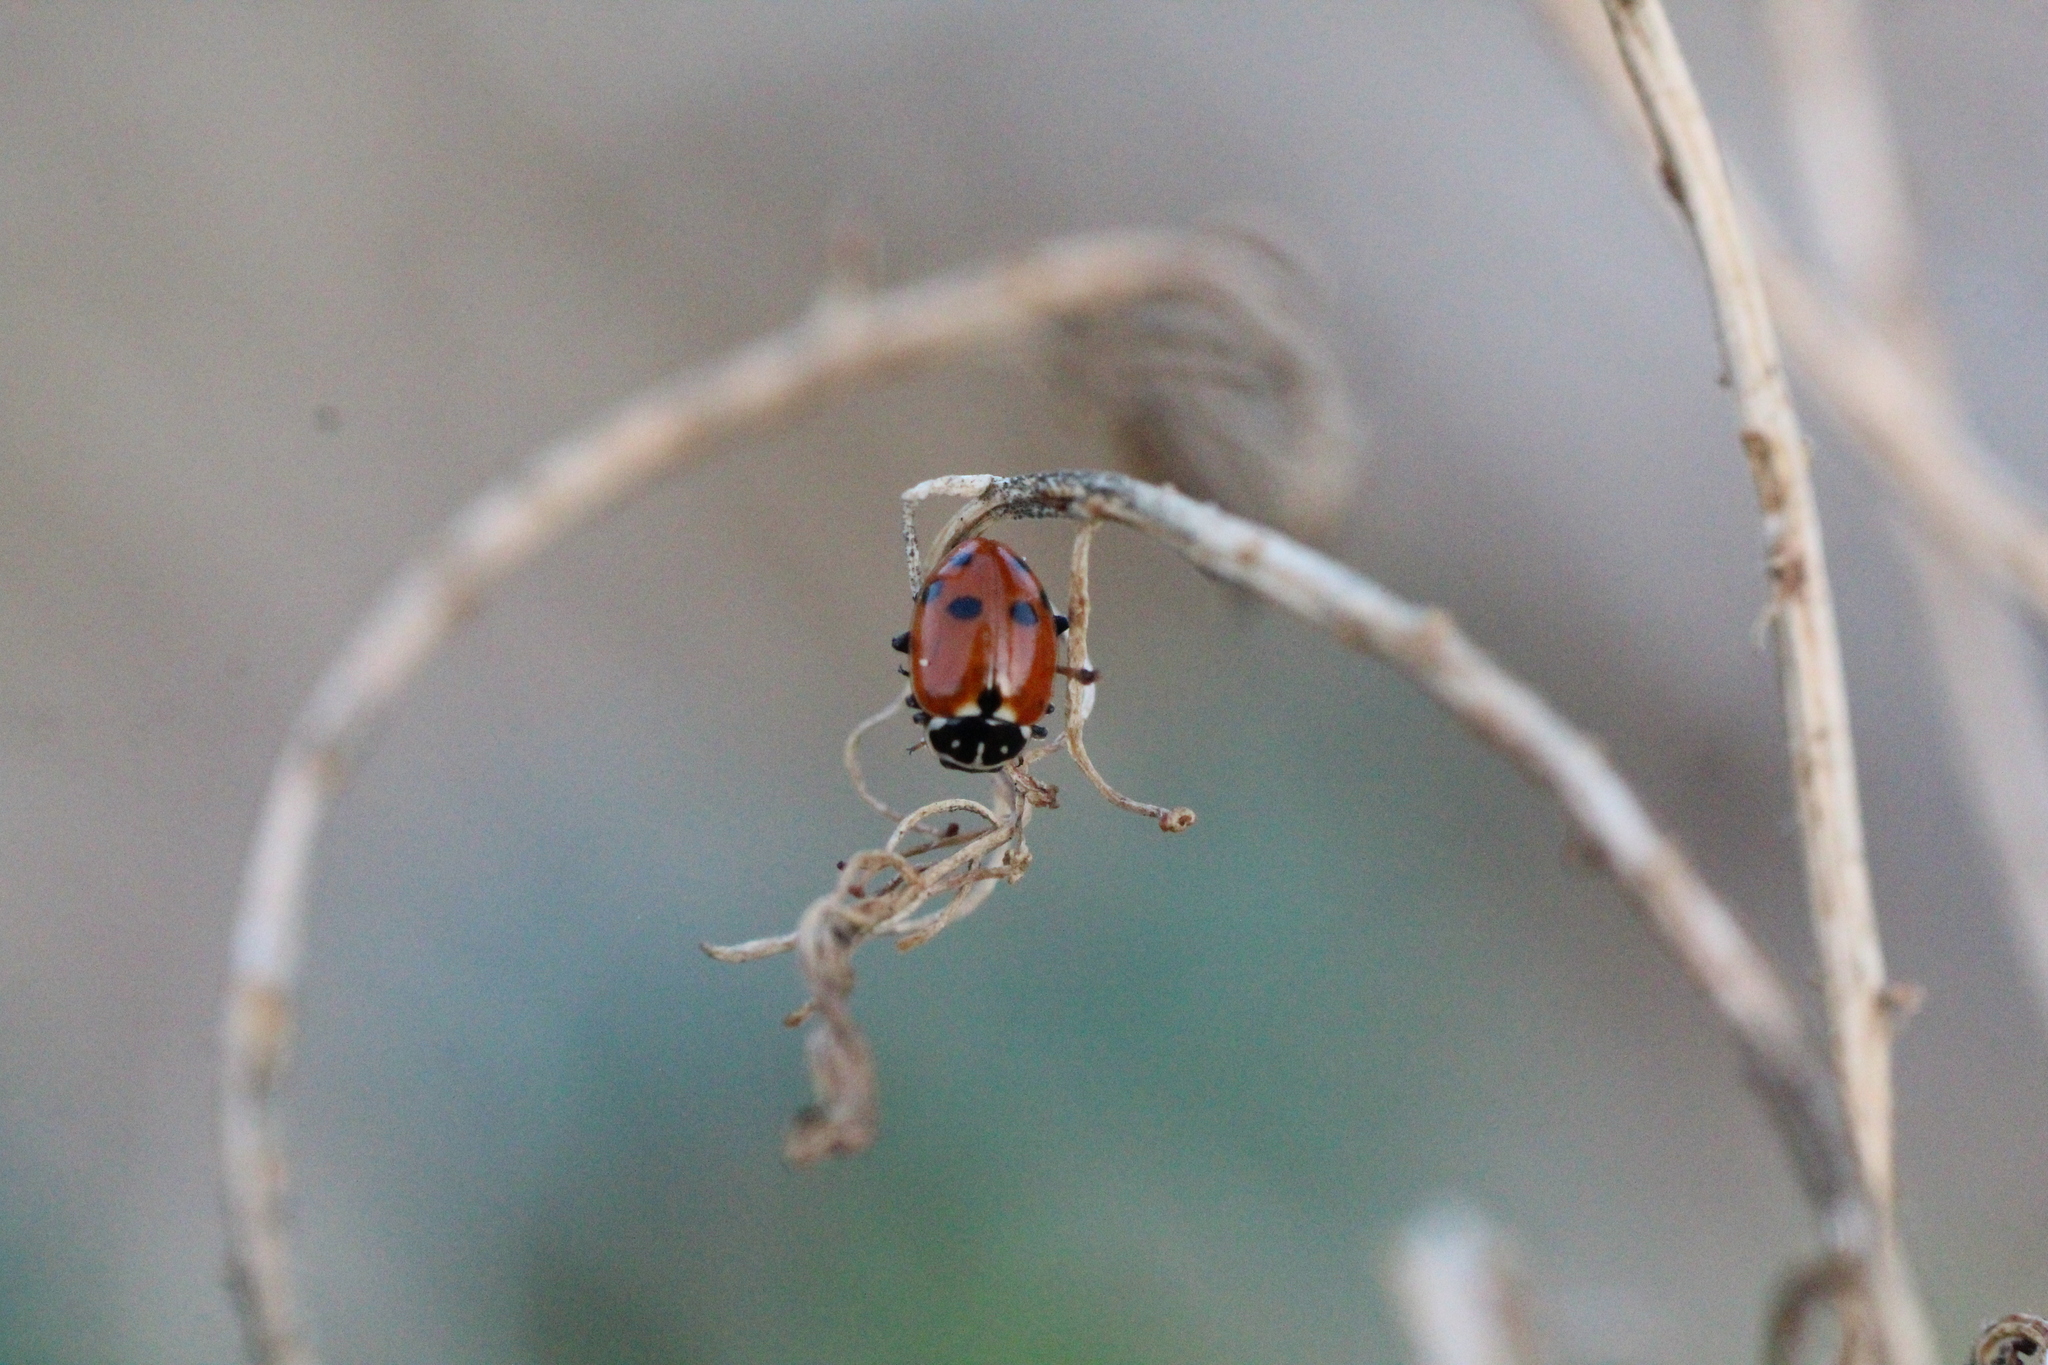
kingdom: Animalia
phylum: Arthropoda
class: Insecta
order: Coleoptera
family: Coccinellidae
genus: Hippodamia
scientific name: Hippodamia variegata
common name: Ladybird beetle
